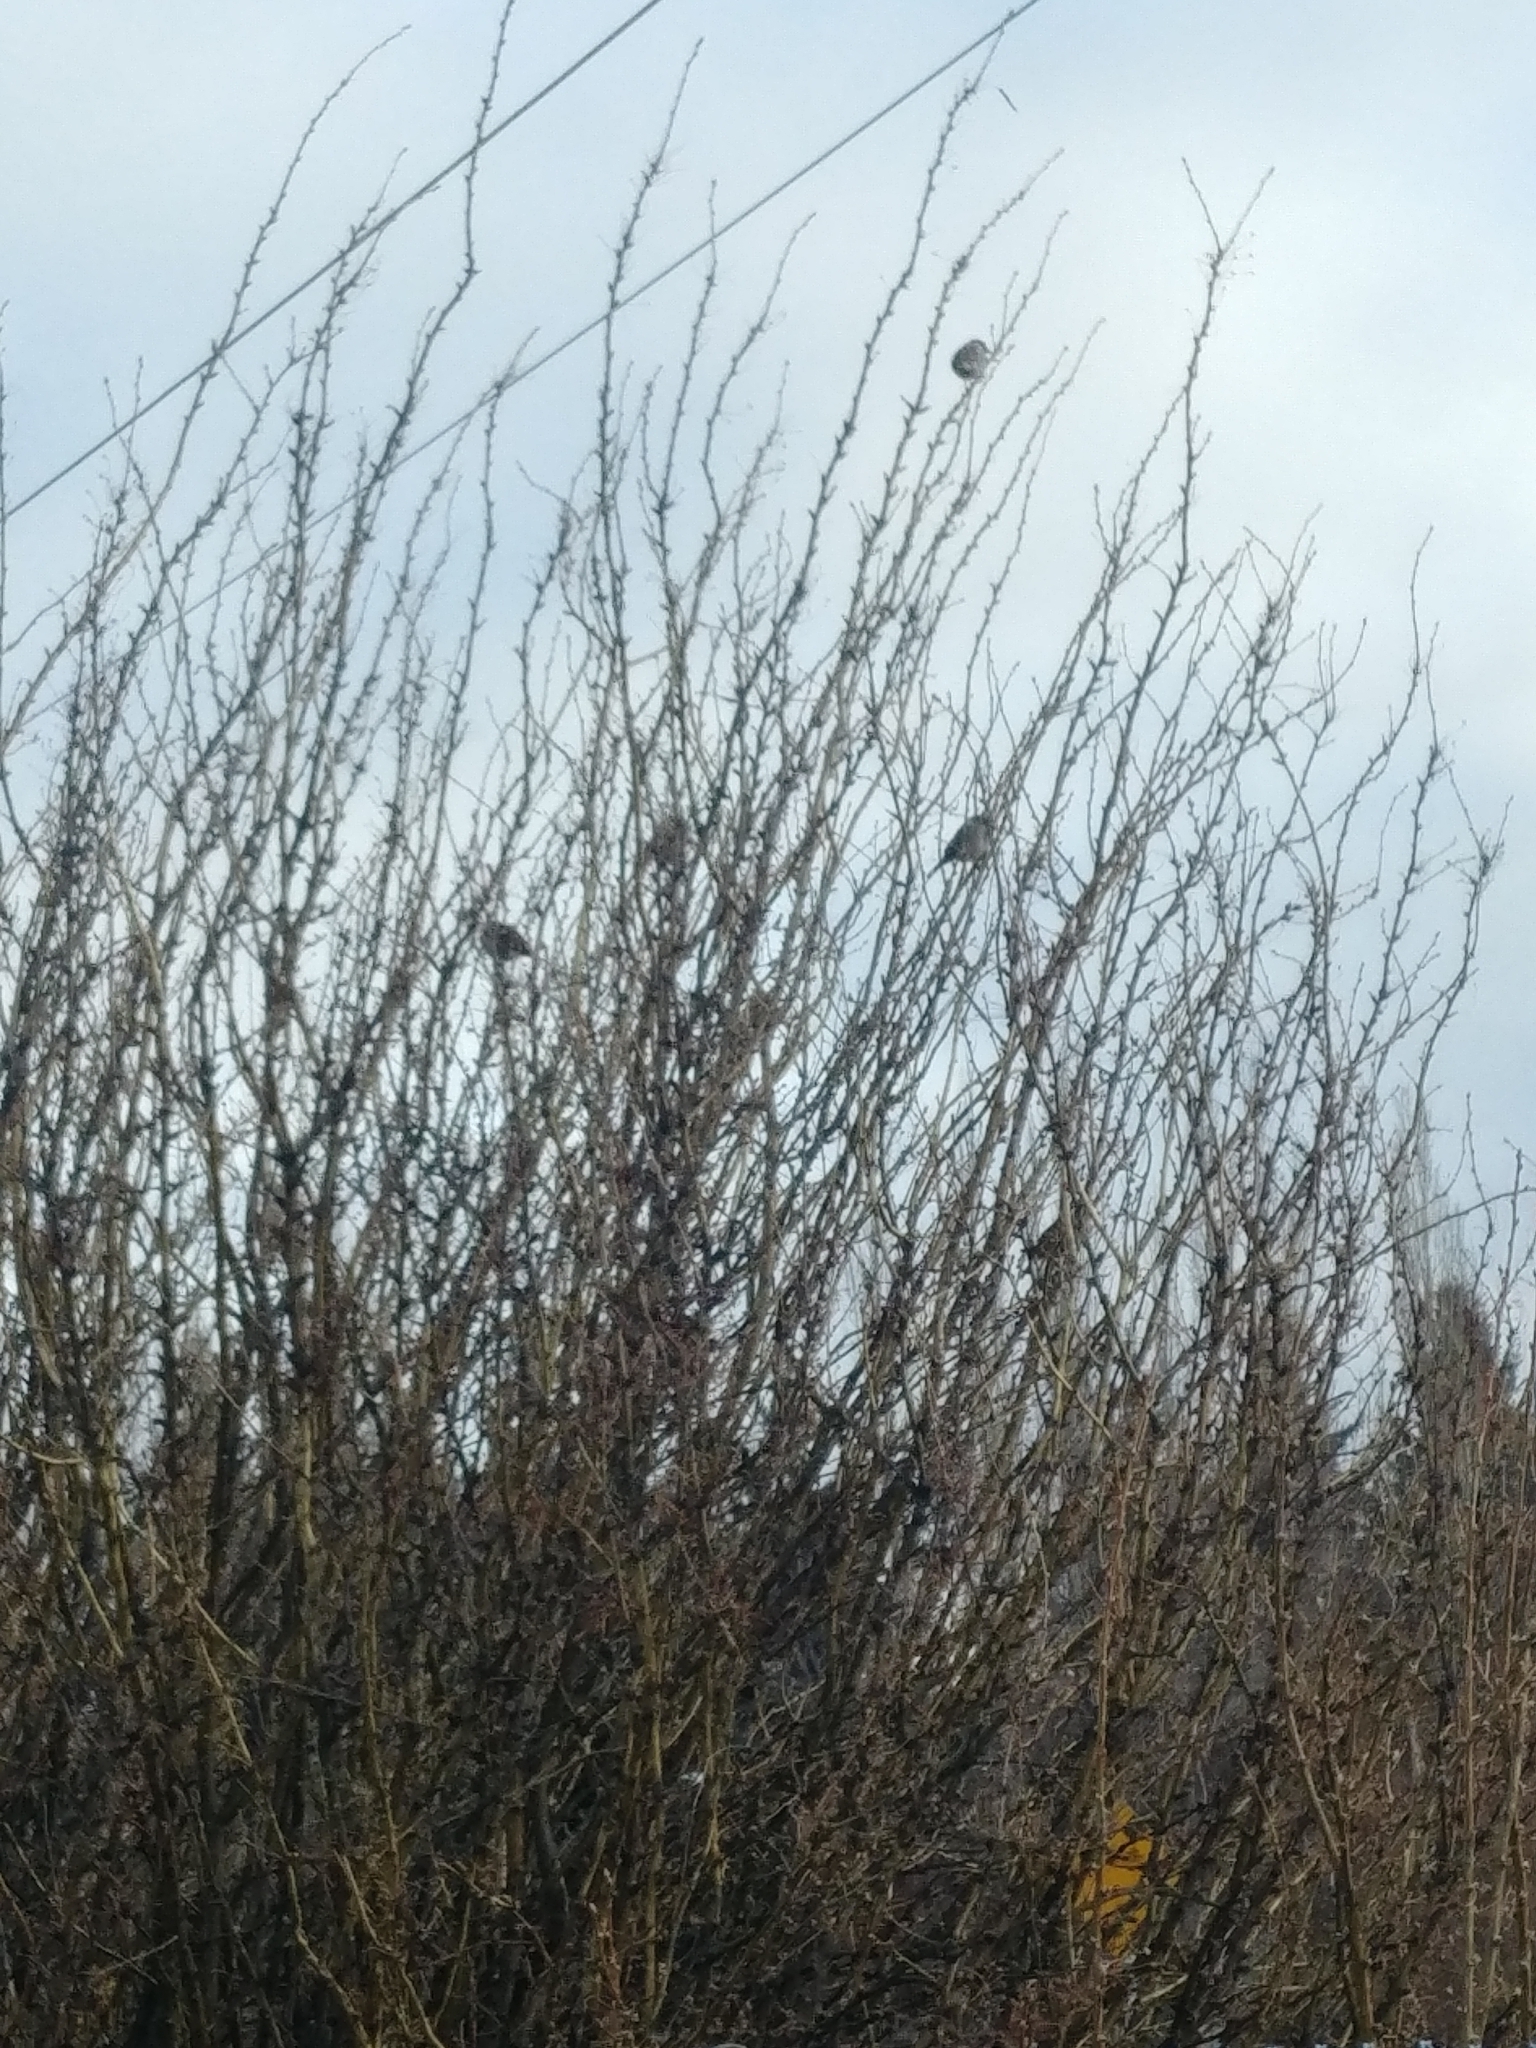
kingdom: Animalia
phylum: Chordata
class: Aves
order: Passeriformes
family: Passeridae
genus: Passer
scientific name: Passer domesticus
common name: House sparrow
